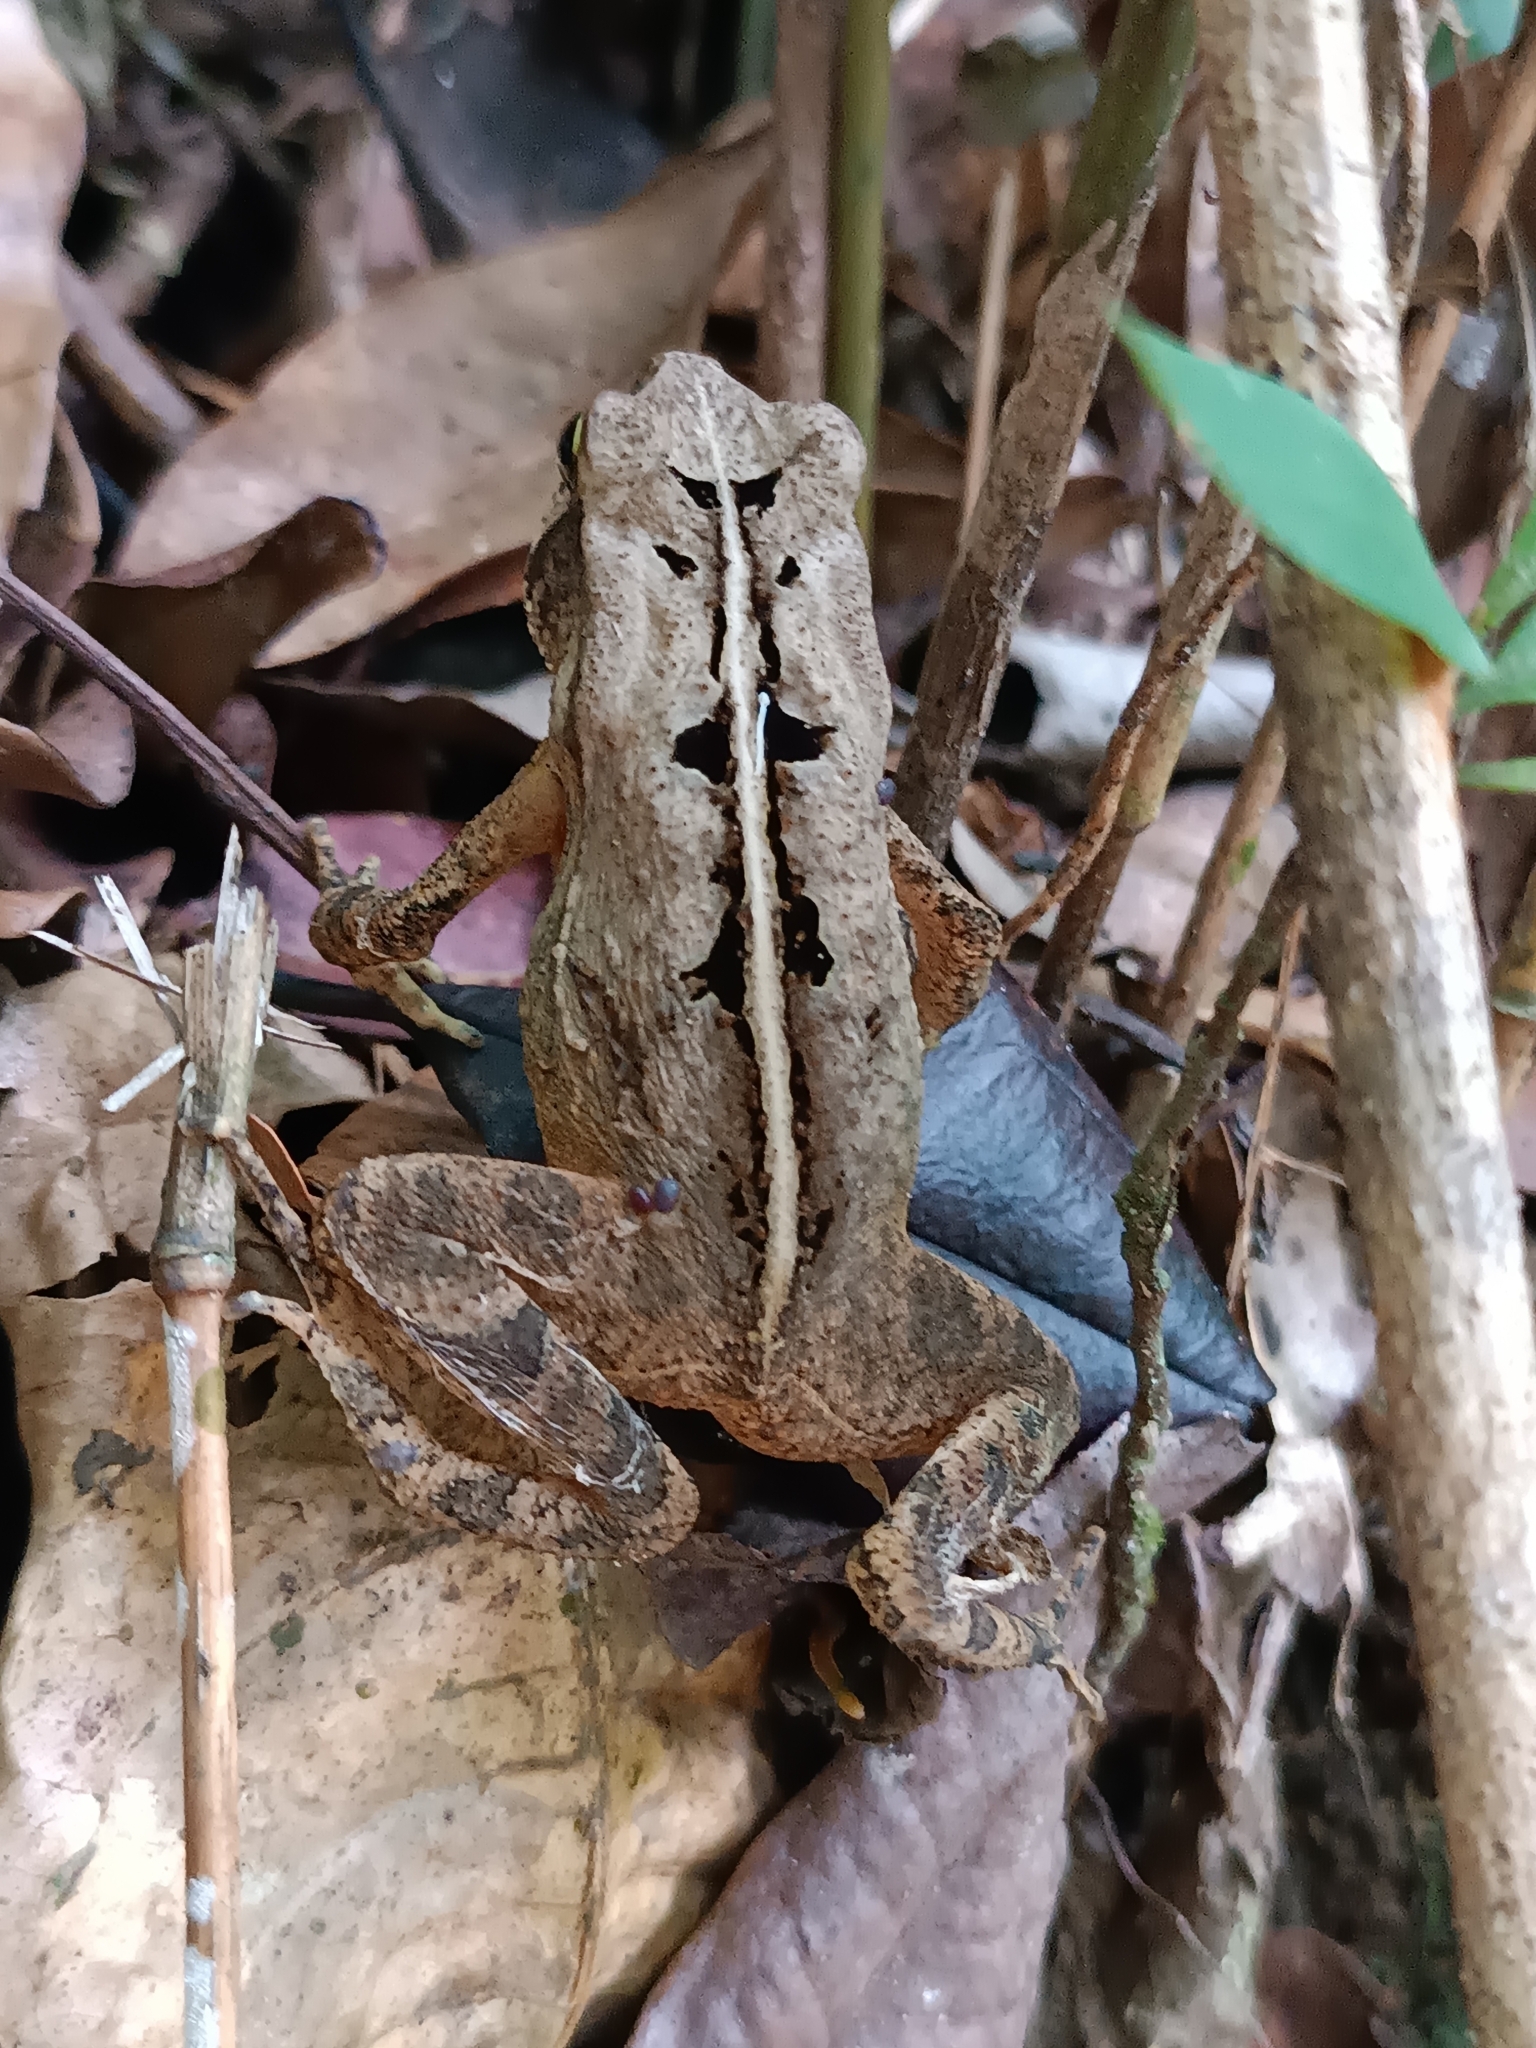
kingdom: Animalia
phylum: Chordata
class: Amphibia
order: Anura
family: Bufonidae
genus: Rhinella
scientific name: Rhinella ornata
